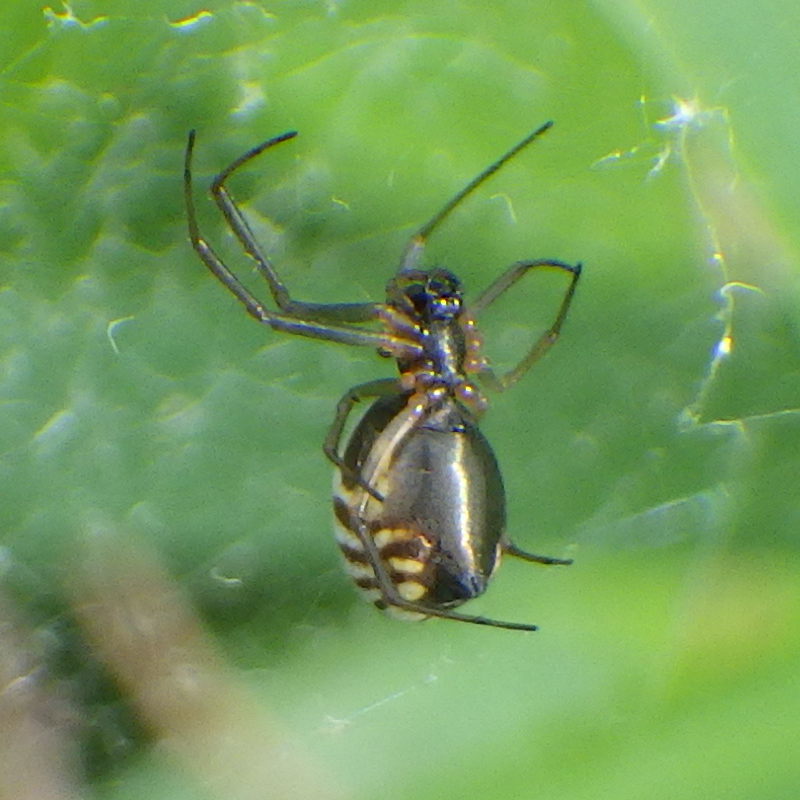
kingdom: Animalia
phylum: Arthropoda
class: Arachnida
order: Araneae
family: Linyphiidae
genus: Frontinella
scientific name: Frontinella pyramitela
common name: Bowl-and-doily spider
